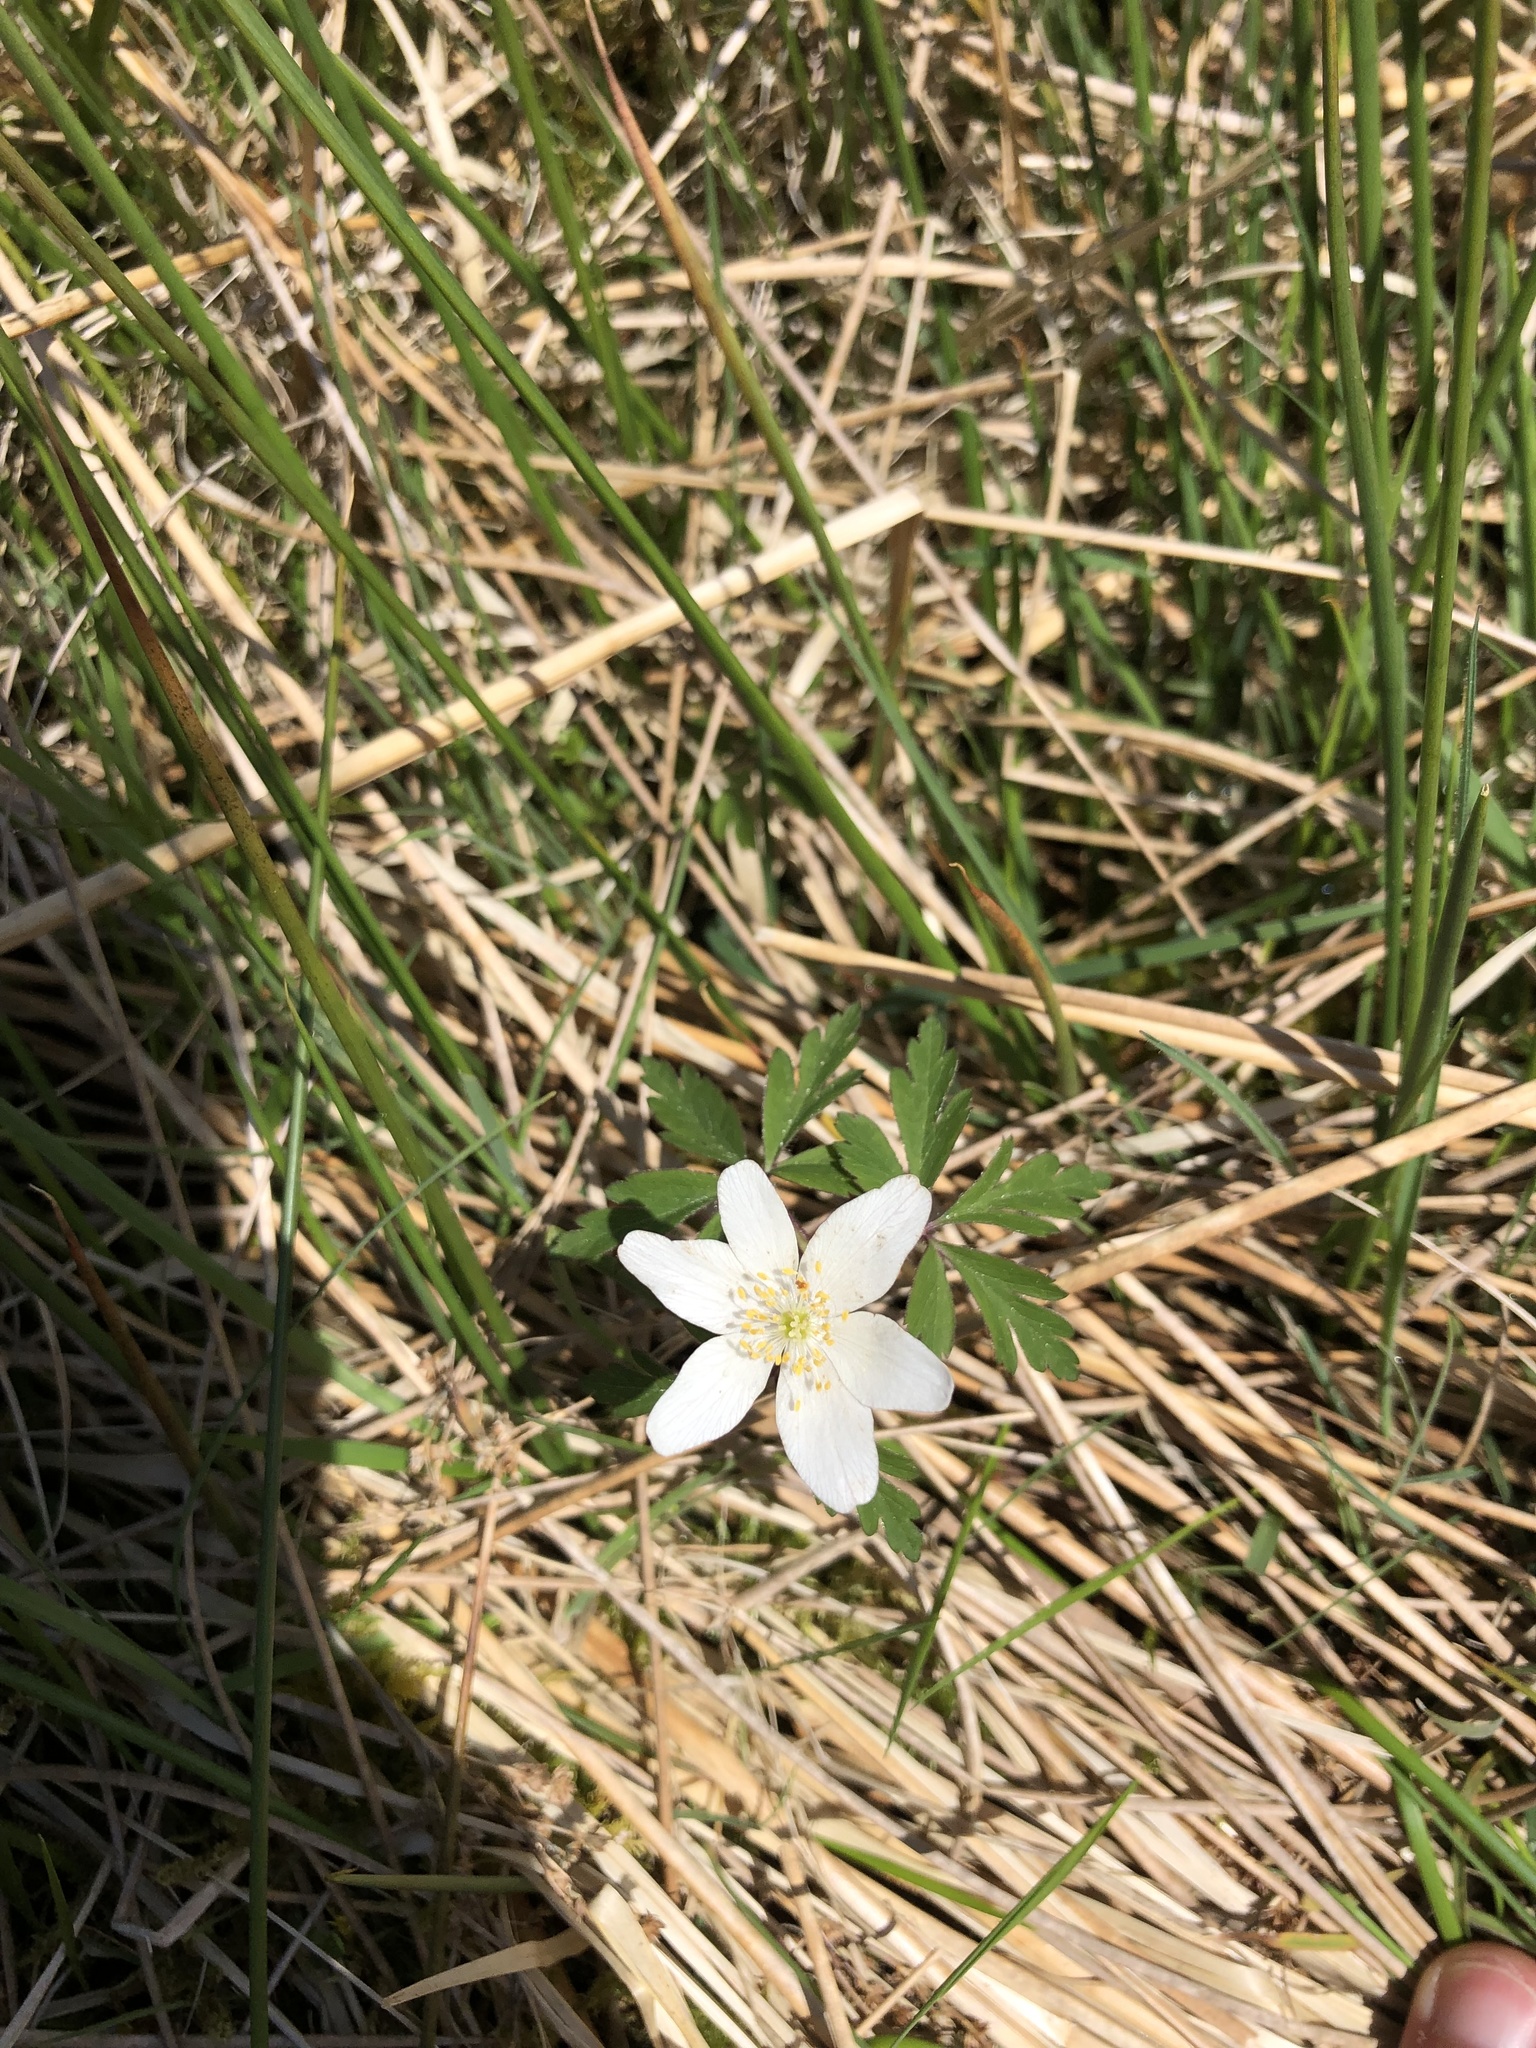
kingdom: Plantae
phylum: Tracheophyta
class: Magnoliopsida
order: Ranunculales
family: Ranunculaceae
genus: Anemone
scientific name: Anemone nemorosa
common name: Wood anemone
